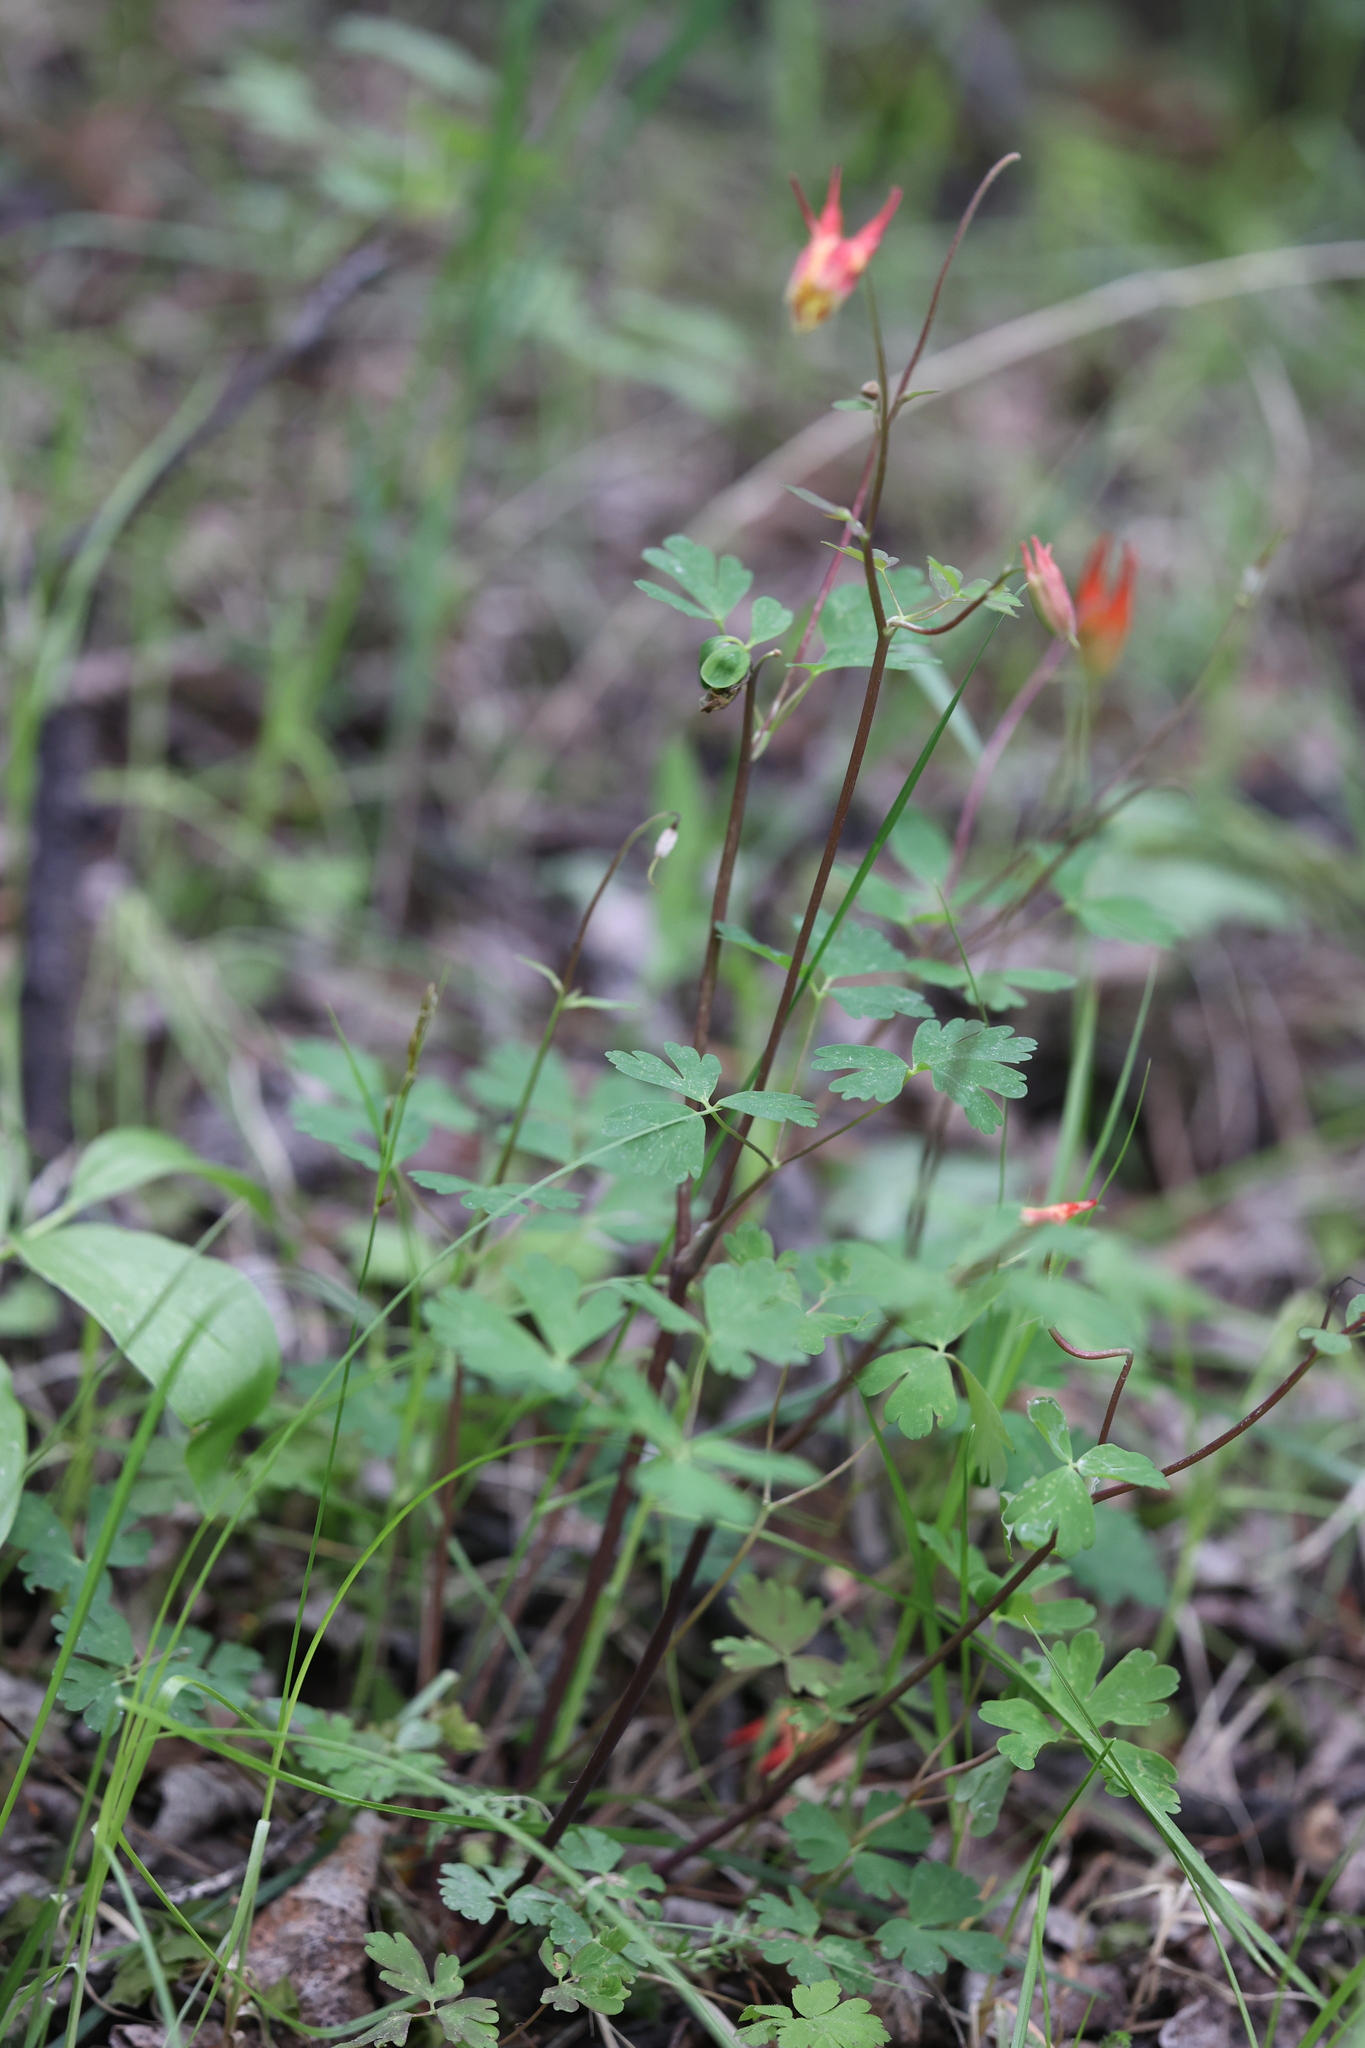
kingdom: Plantae
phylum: Tracheophyta
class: Magnoliopsida
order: Ranunculales
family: Ranunculaceae
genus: Aquilegia
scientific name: Aquilegia elegantula
